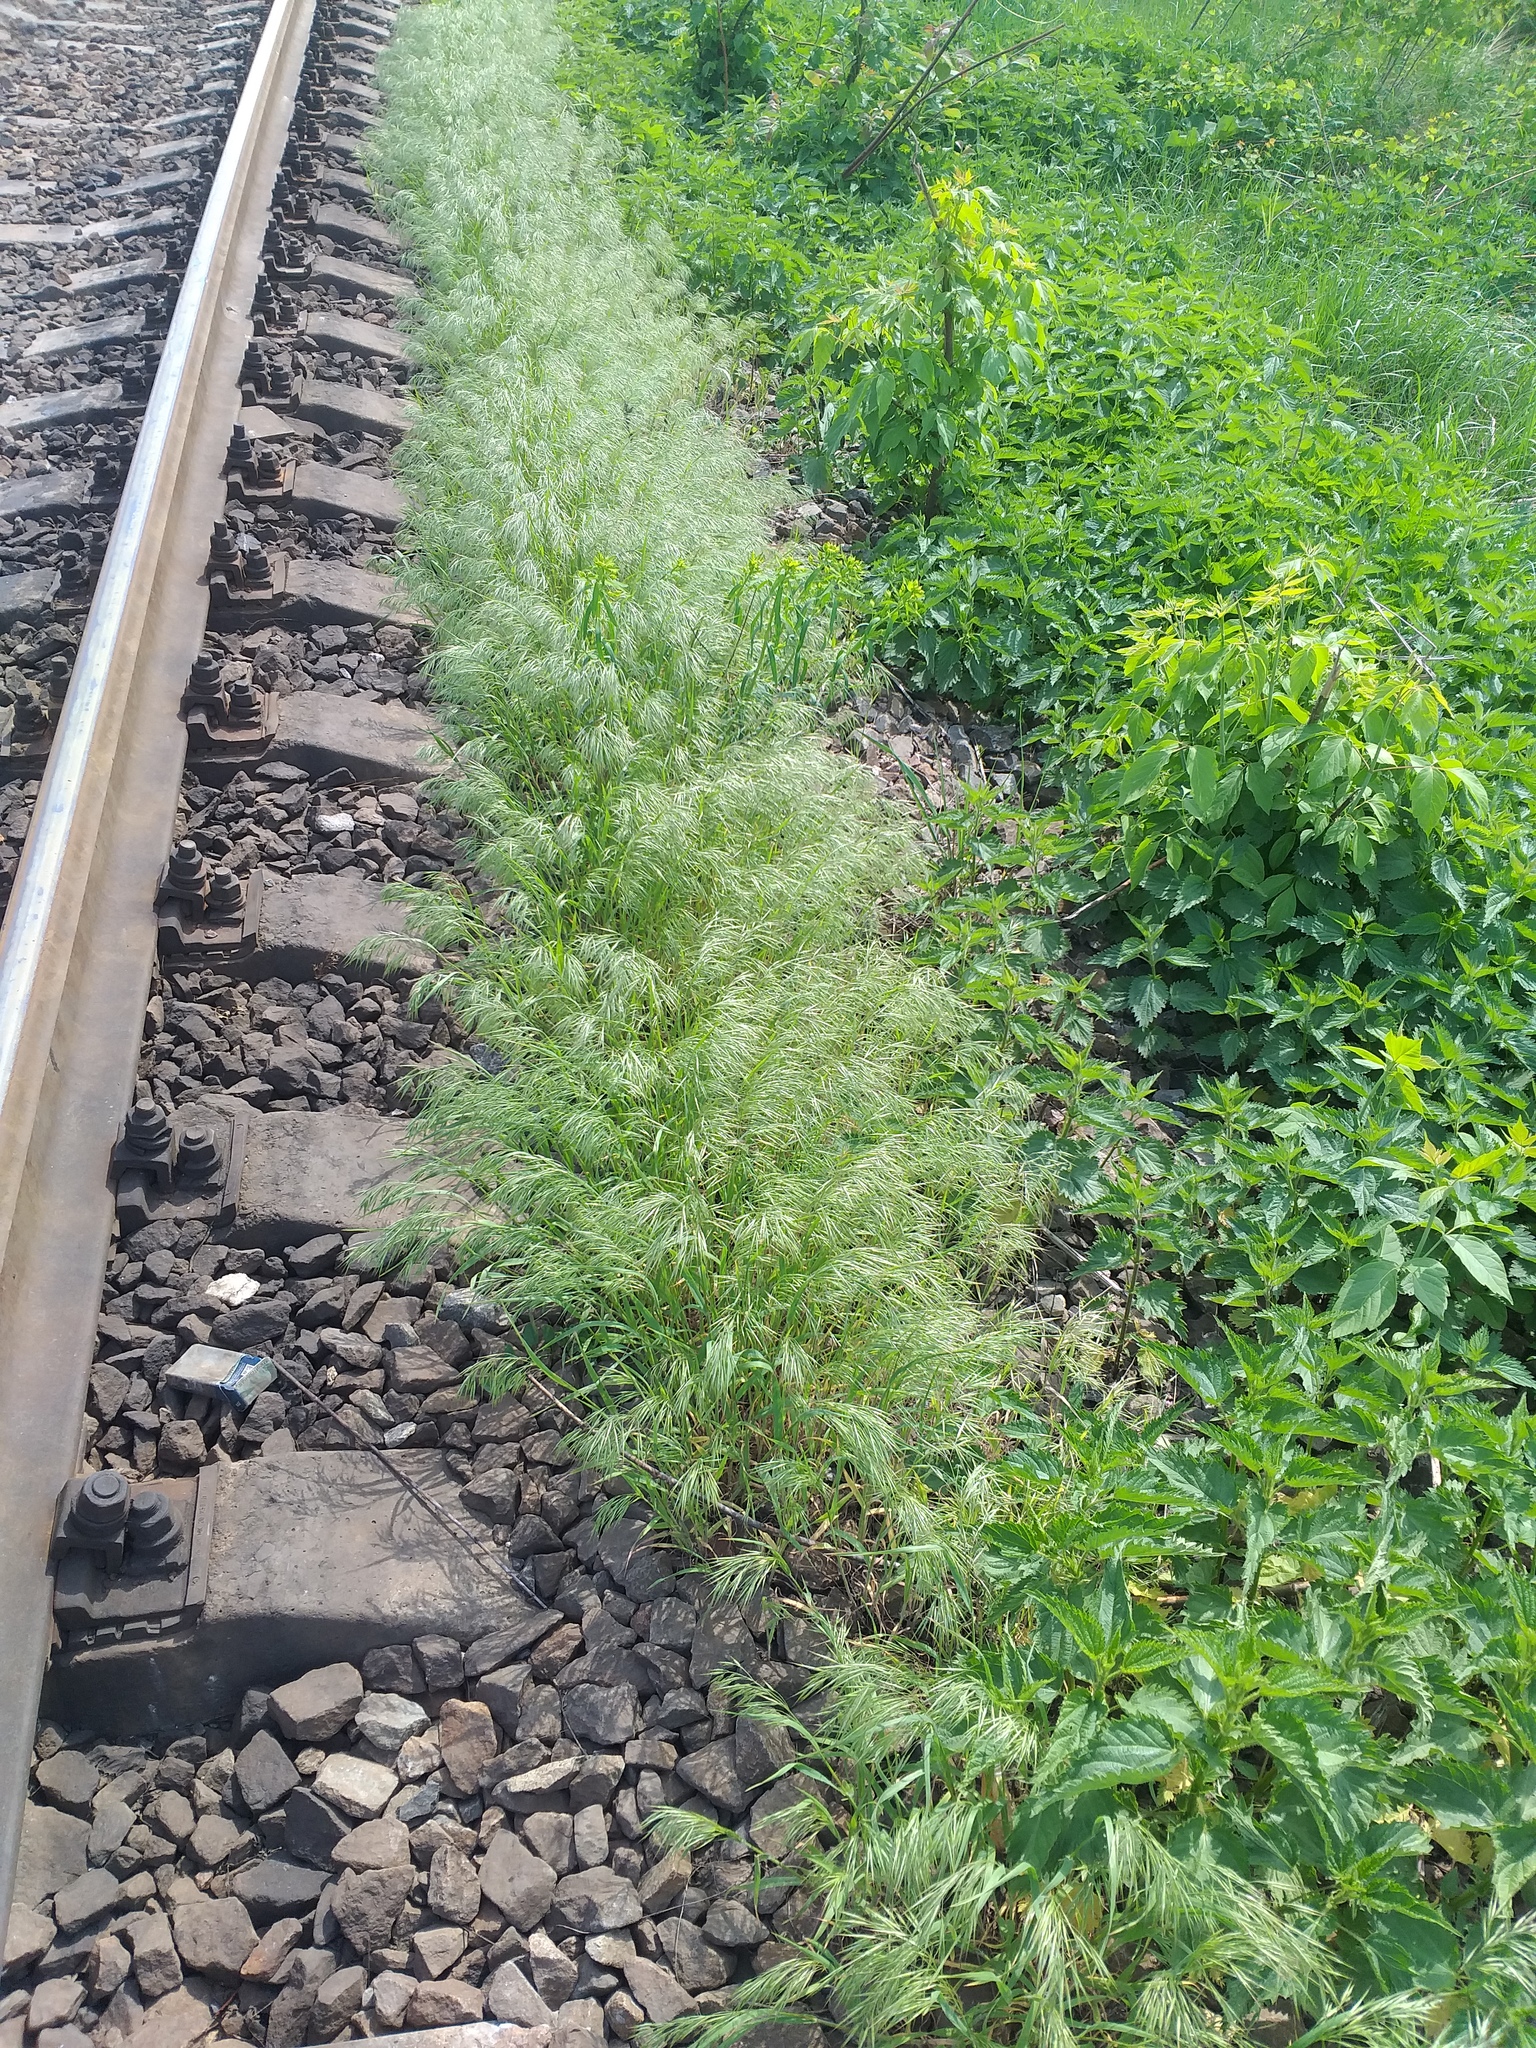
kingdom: Plantae
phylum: Tracheophyta
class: Liliopsida
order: Poales
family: Poaceae
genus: Bromus
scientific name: Bromus tectorum
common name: Cheatgrass
